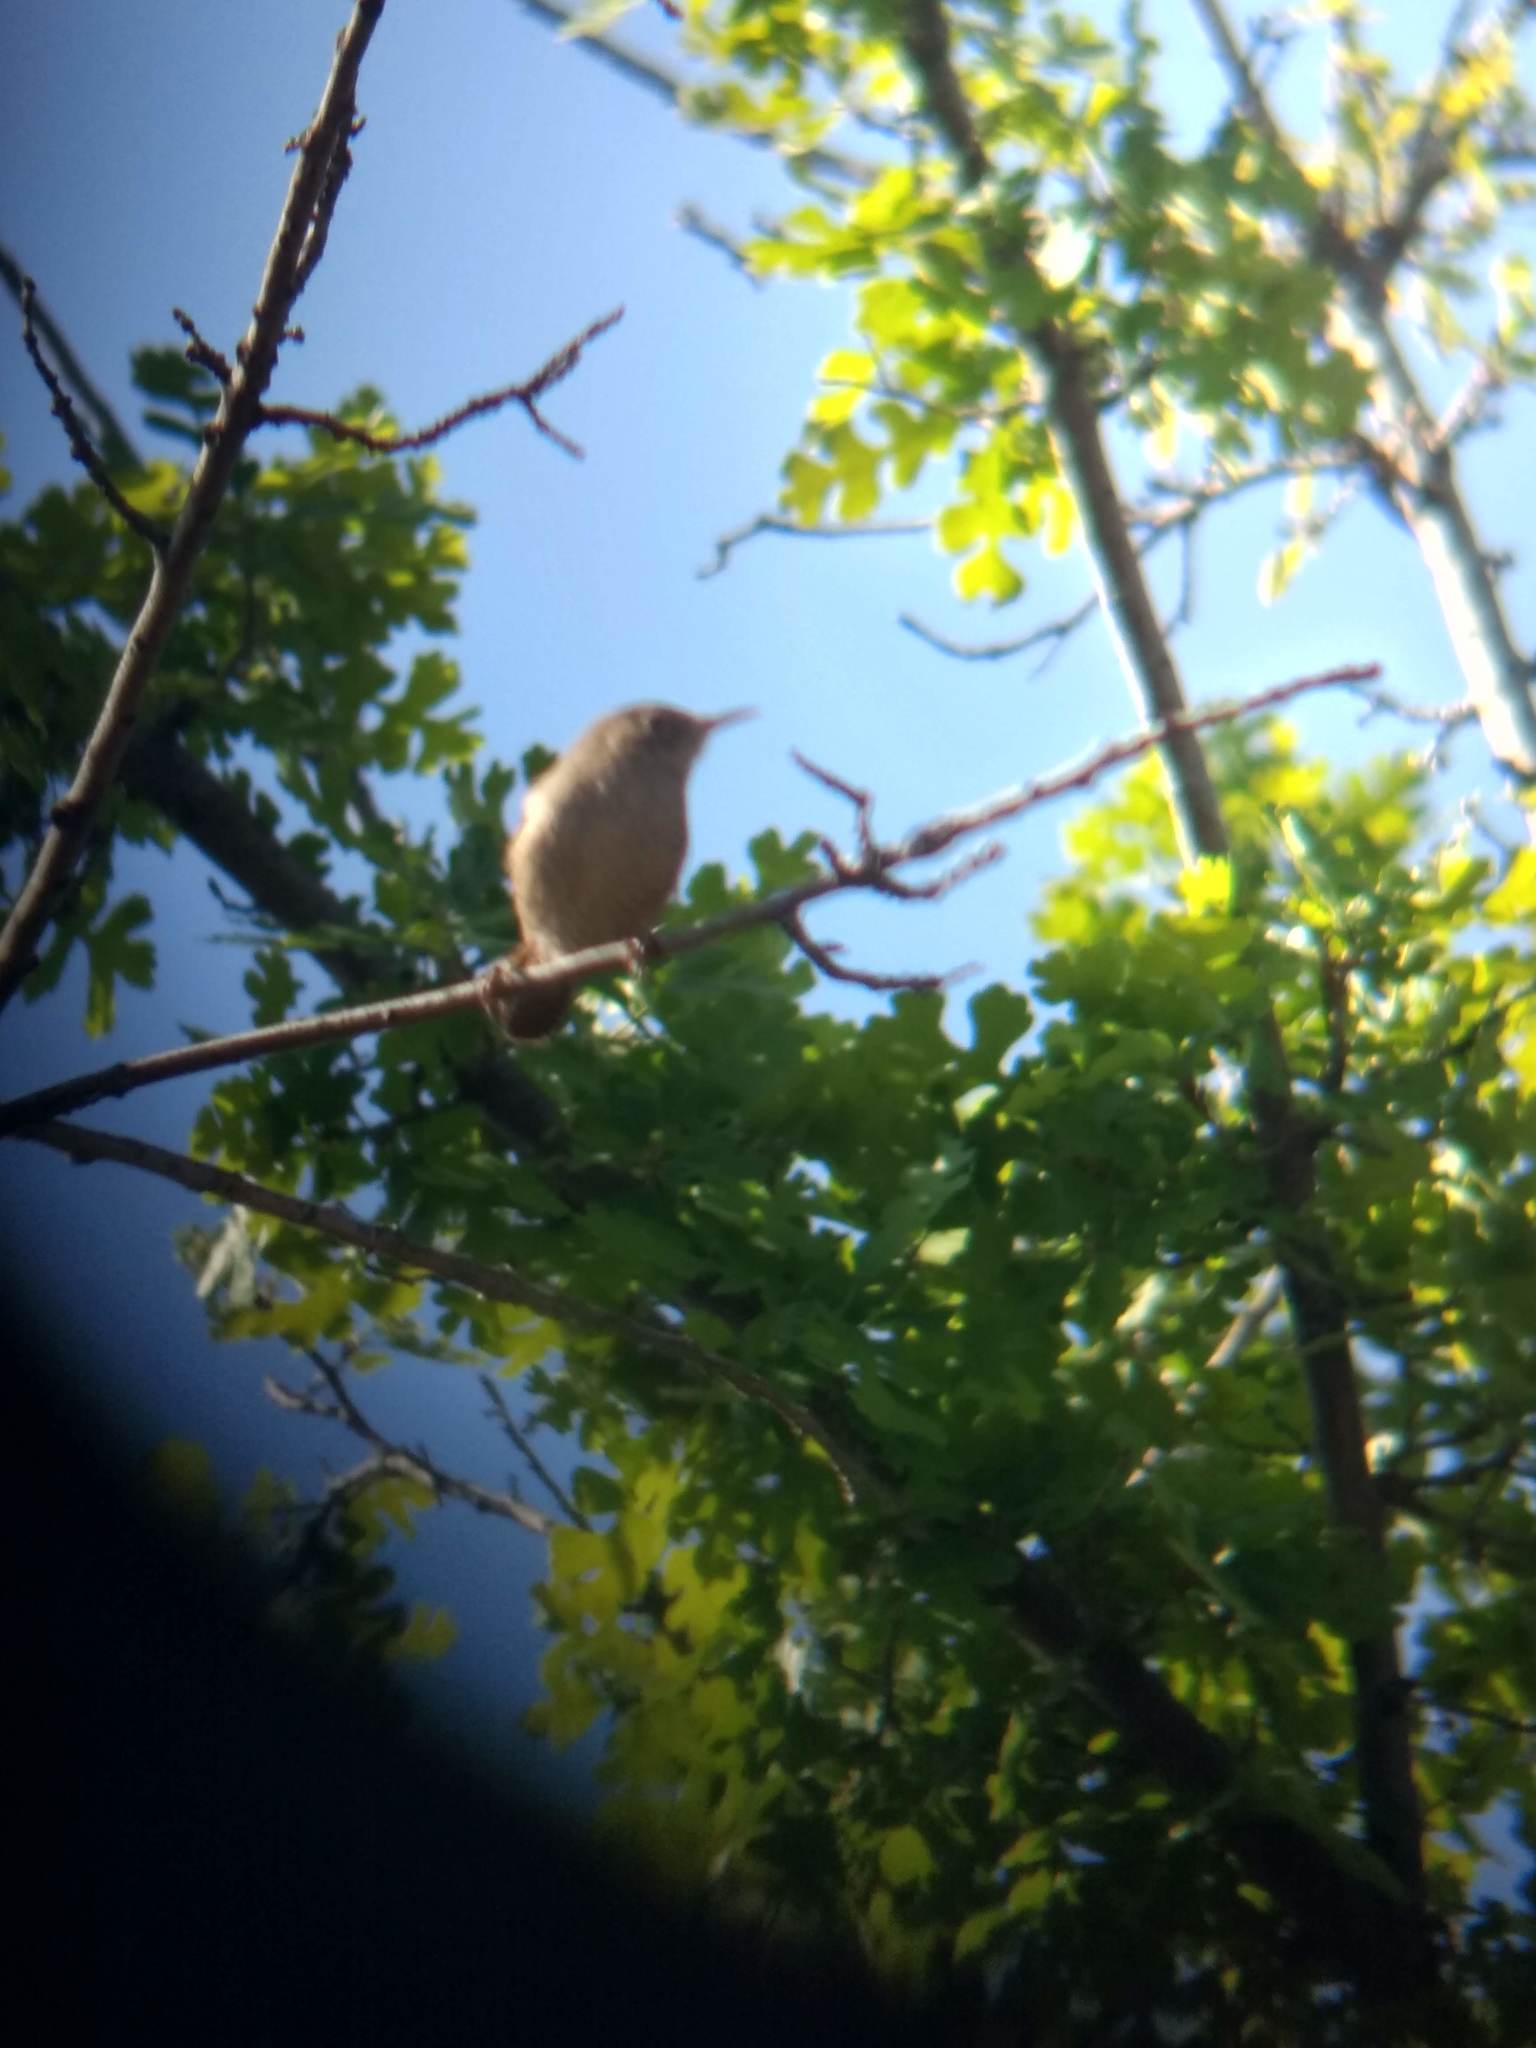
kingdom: Animalia
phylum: Chordata
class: Aves
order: Passeriformes
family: Troglodytidae
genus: Troglodytes
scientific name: Troglodytes aedon
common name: House wren
